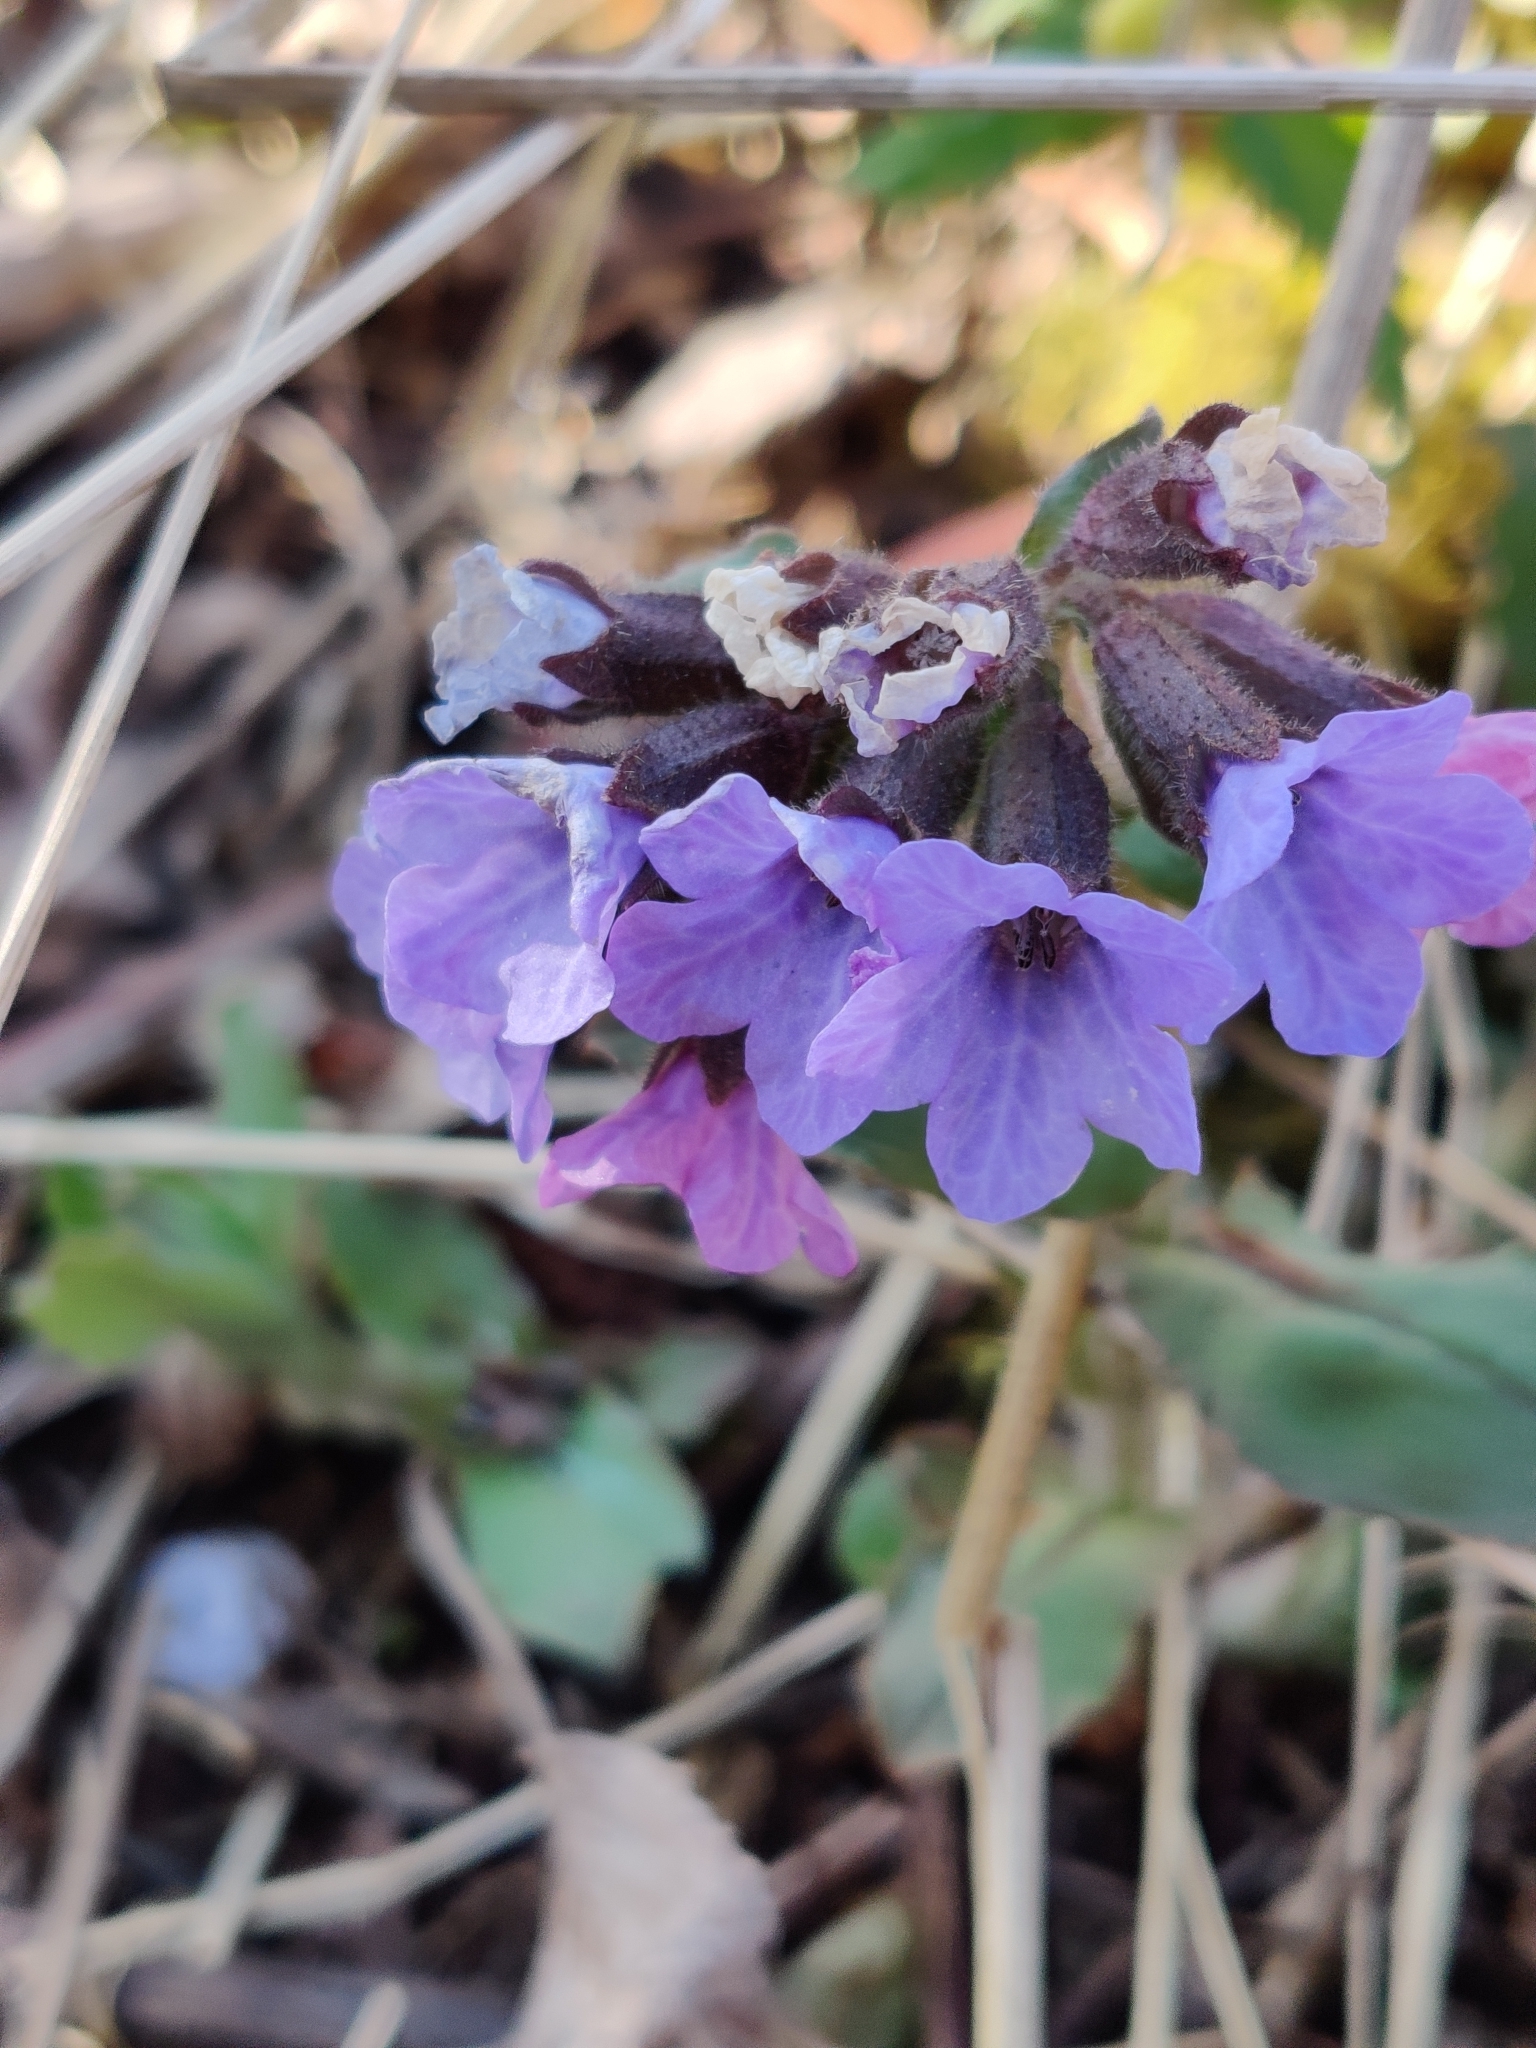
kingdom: Plantae
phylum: Tracheophyta
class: Magnoliopsida
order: Boraginales
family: Boraginaceae
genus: Pulmonaria
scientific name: Pulmonaria obscura
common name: Suffolk lungwort
